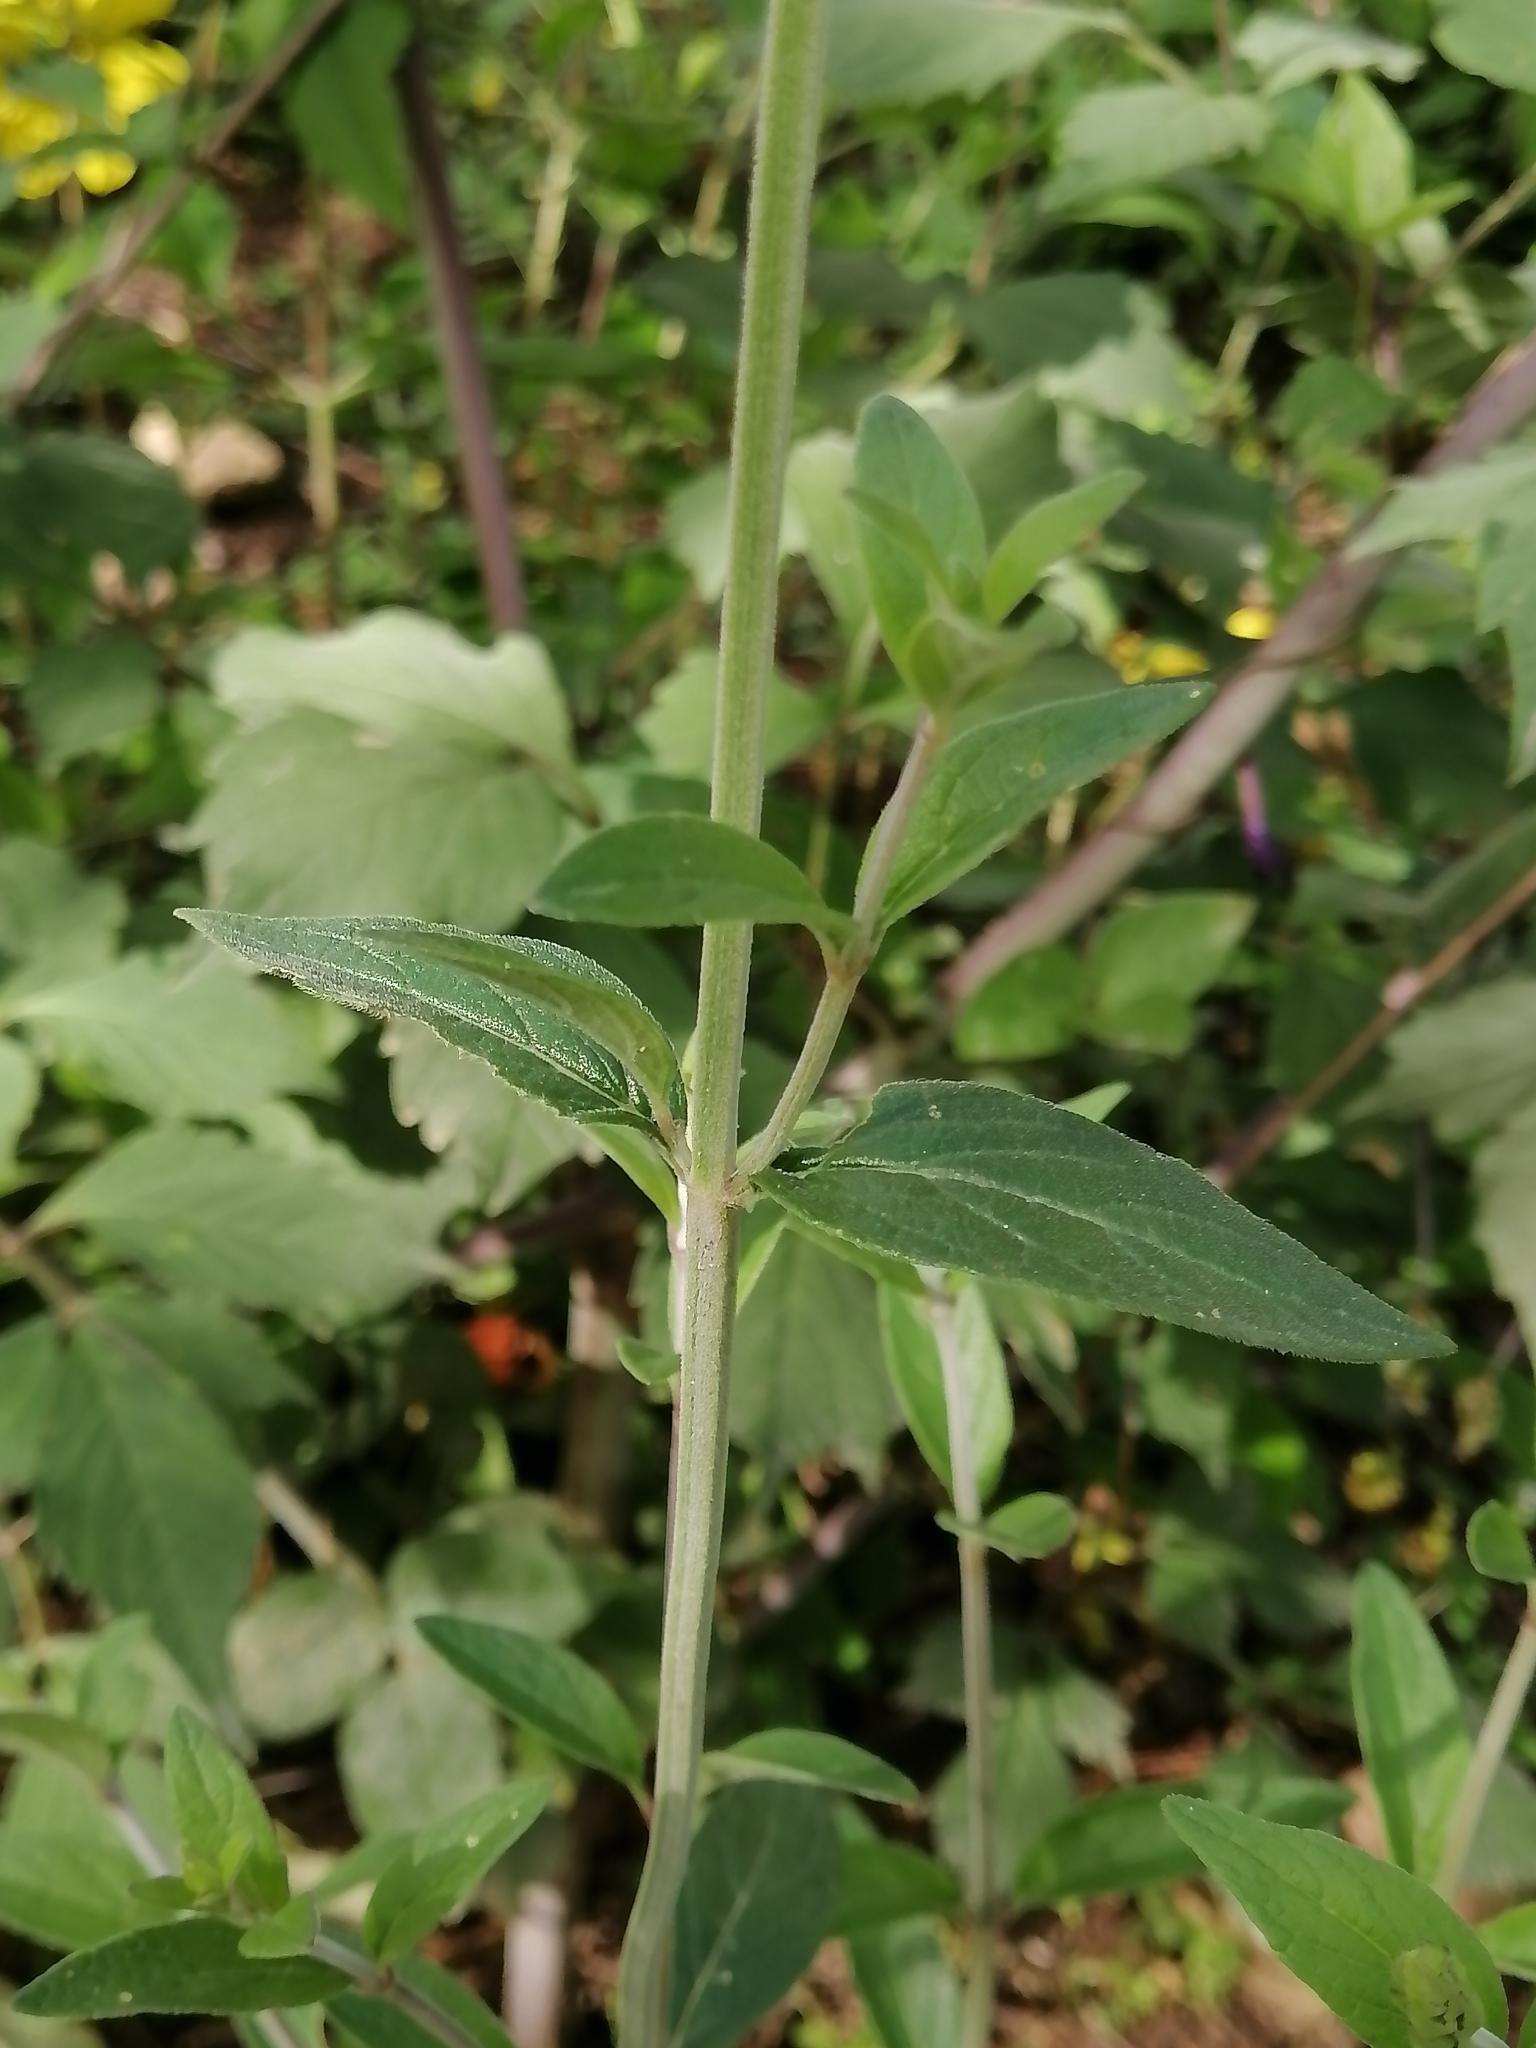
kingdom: Plantae
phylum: Tracheophyta
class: Magnoliopsida
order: Lamiales
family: Lamiaceae
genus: Salvia
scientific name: Salvia helianthemifolia
